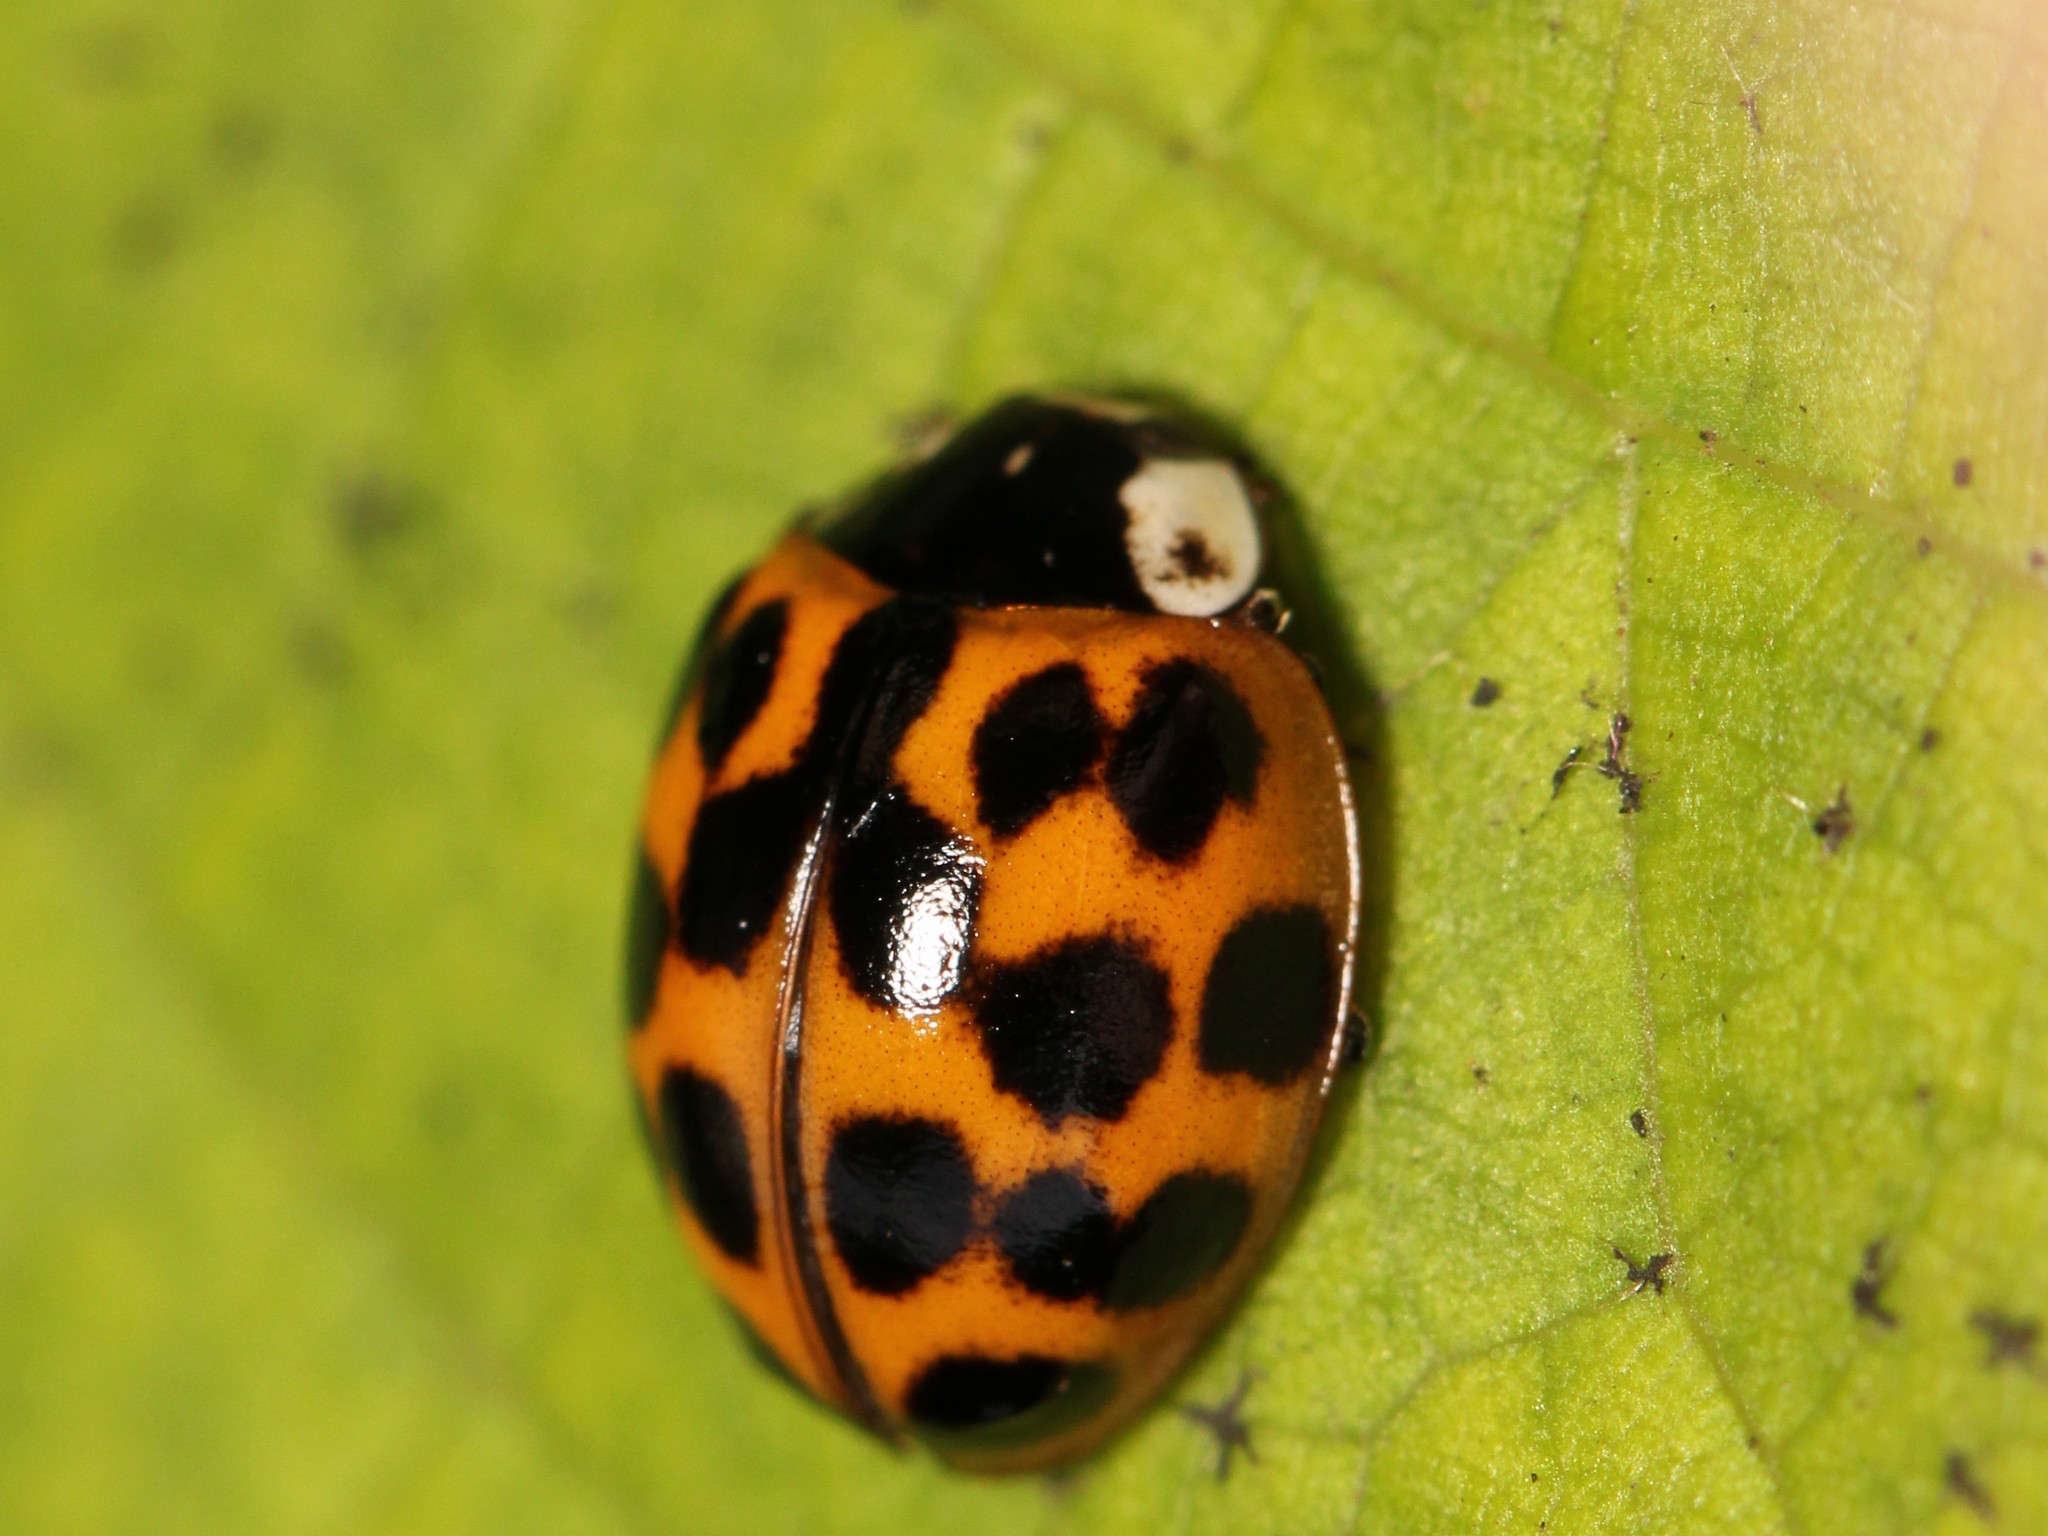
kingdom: Animalia
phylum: Arthropoda
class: Insecta
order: Coleoptera
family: Coccinellidae
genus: Harmonia
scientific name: Harmonia axyridis
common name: Harlequin ladybird
